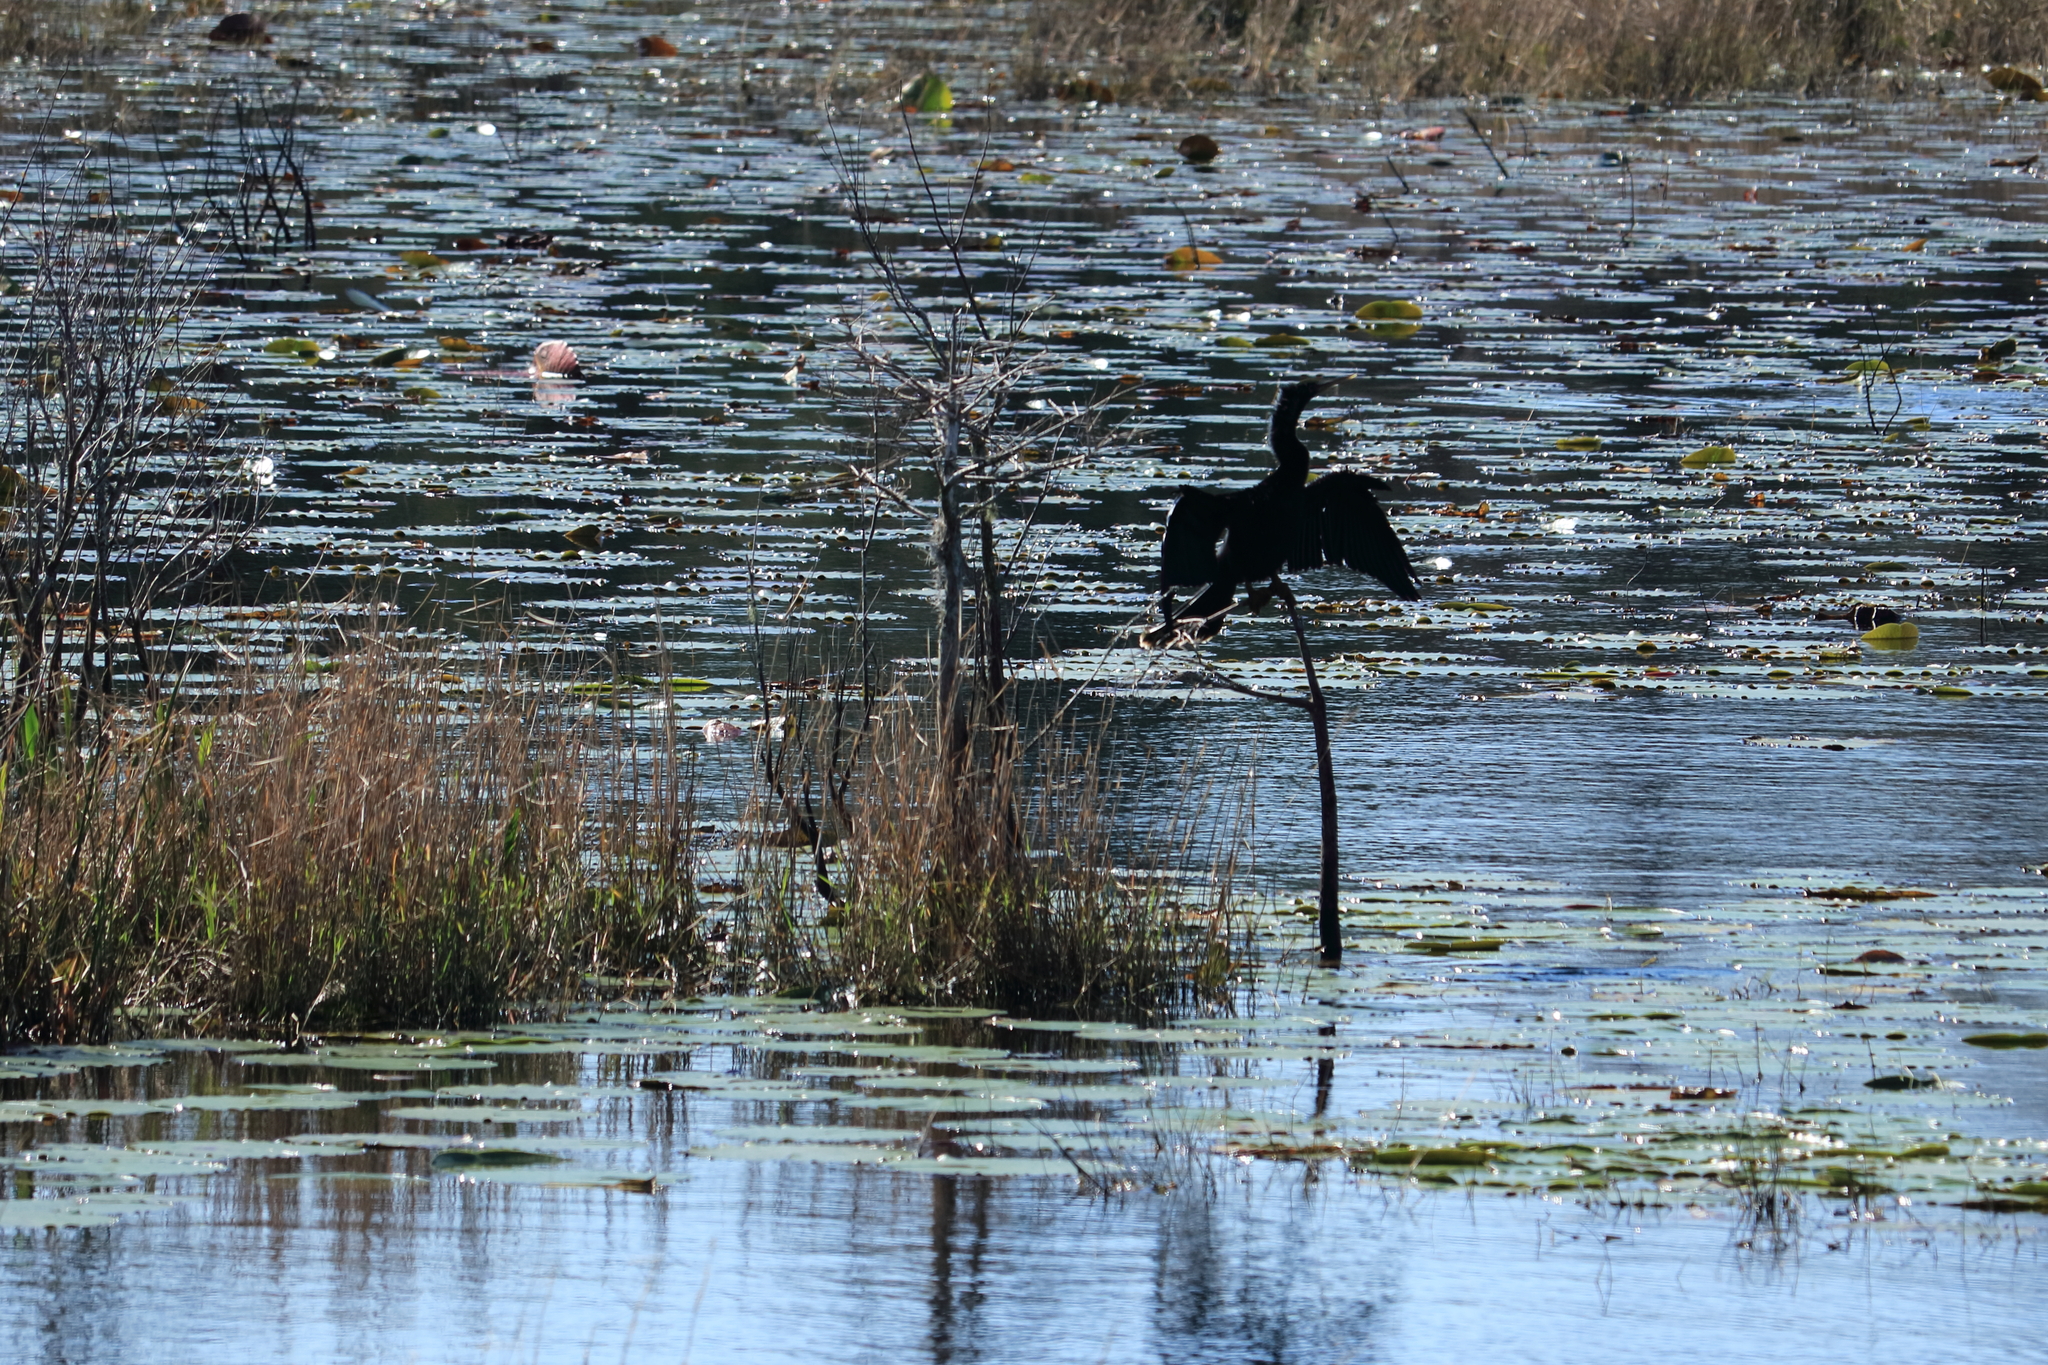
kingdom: Animalia
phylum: Chordata
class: Aves
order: Suliformes
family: Anhingidae
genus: Anhinga
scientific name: Anhinga anhinga
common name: Anhinga
